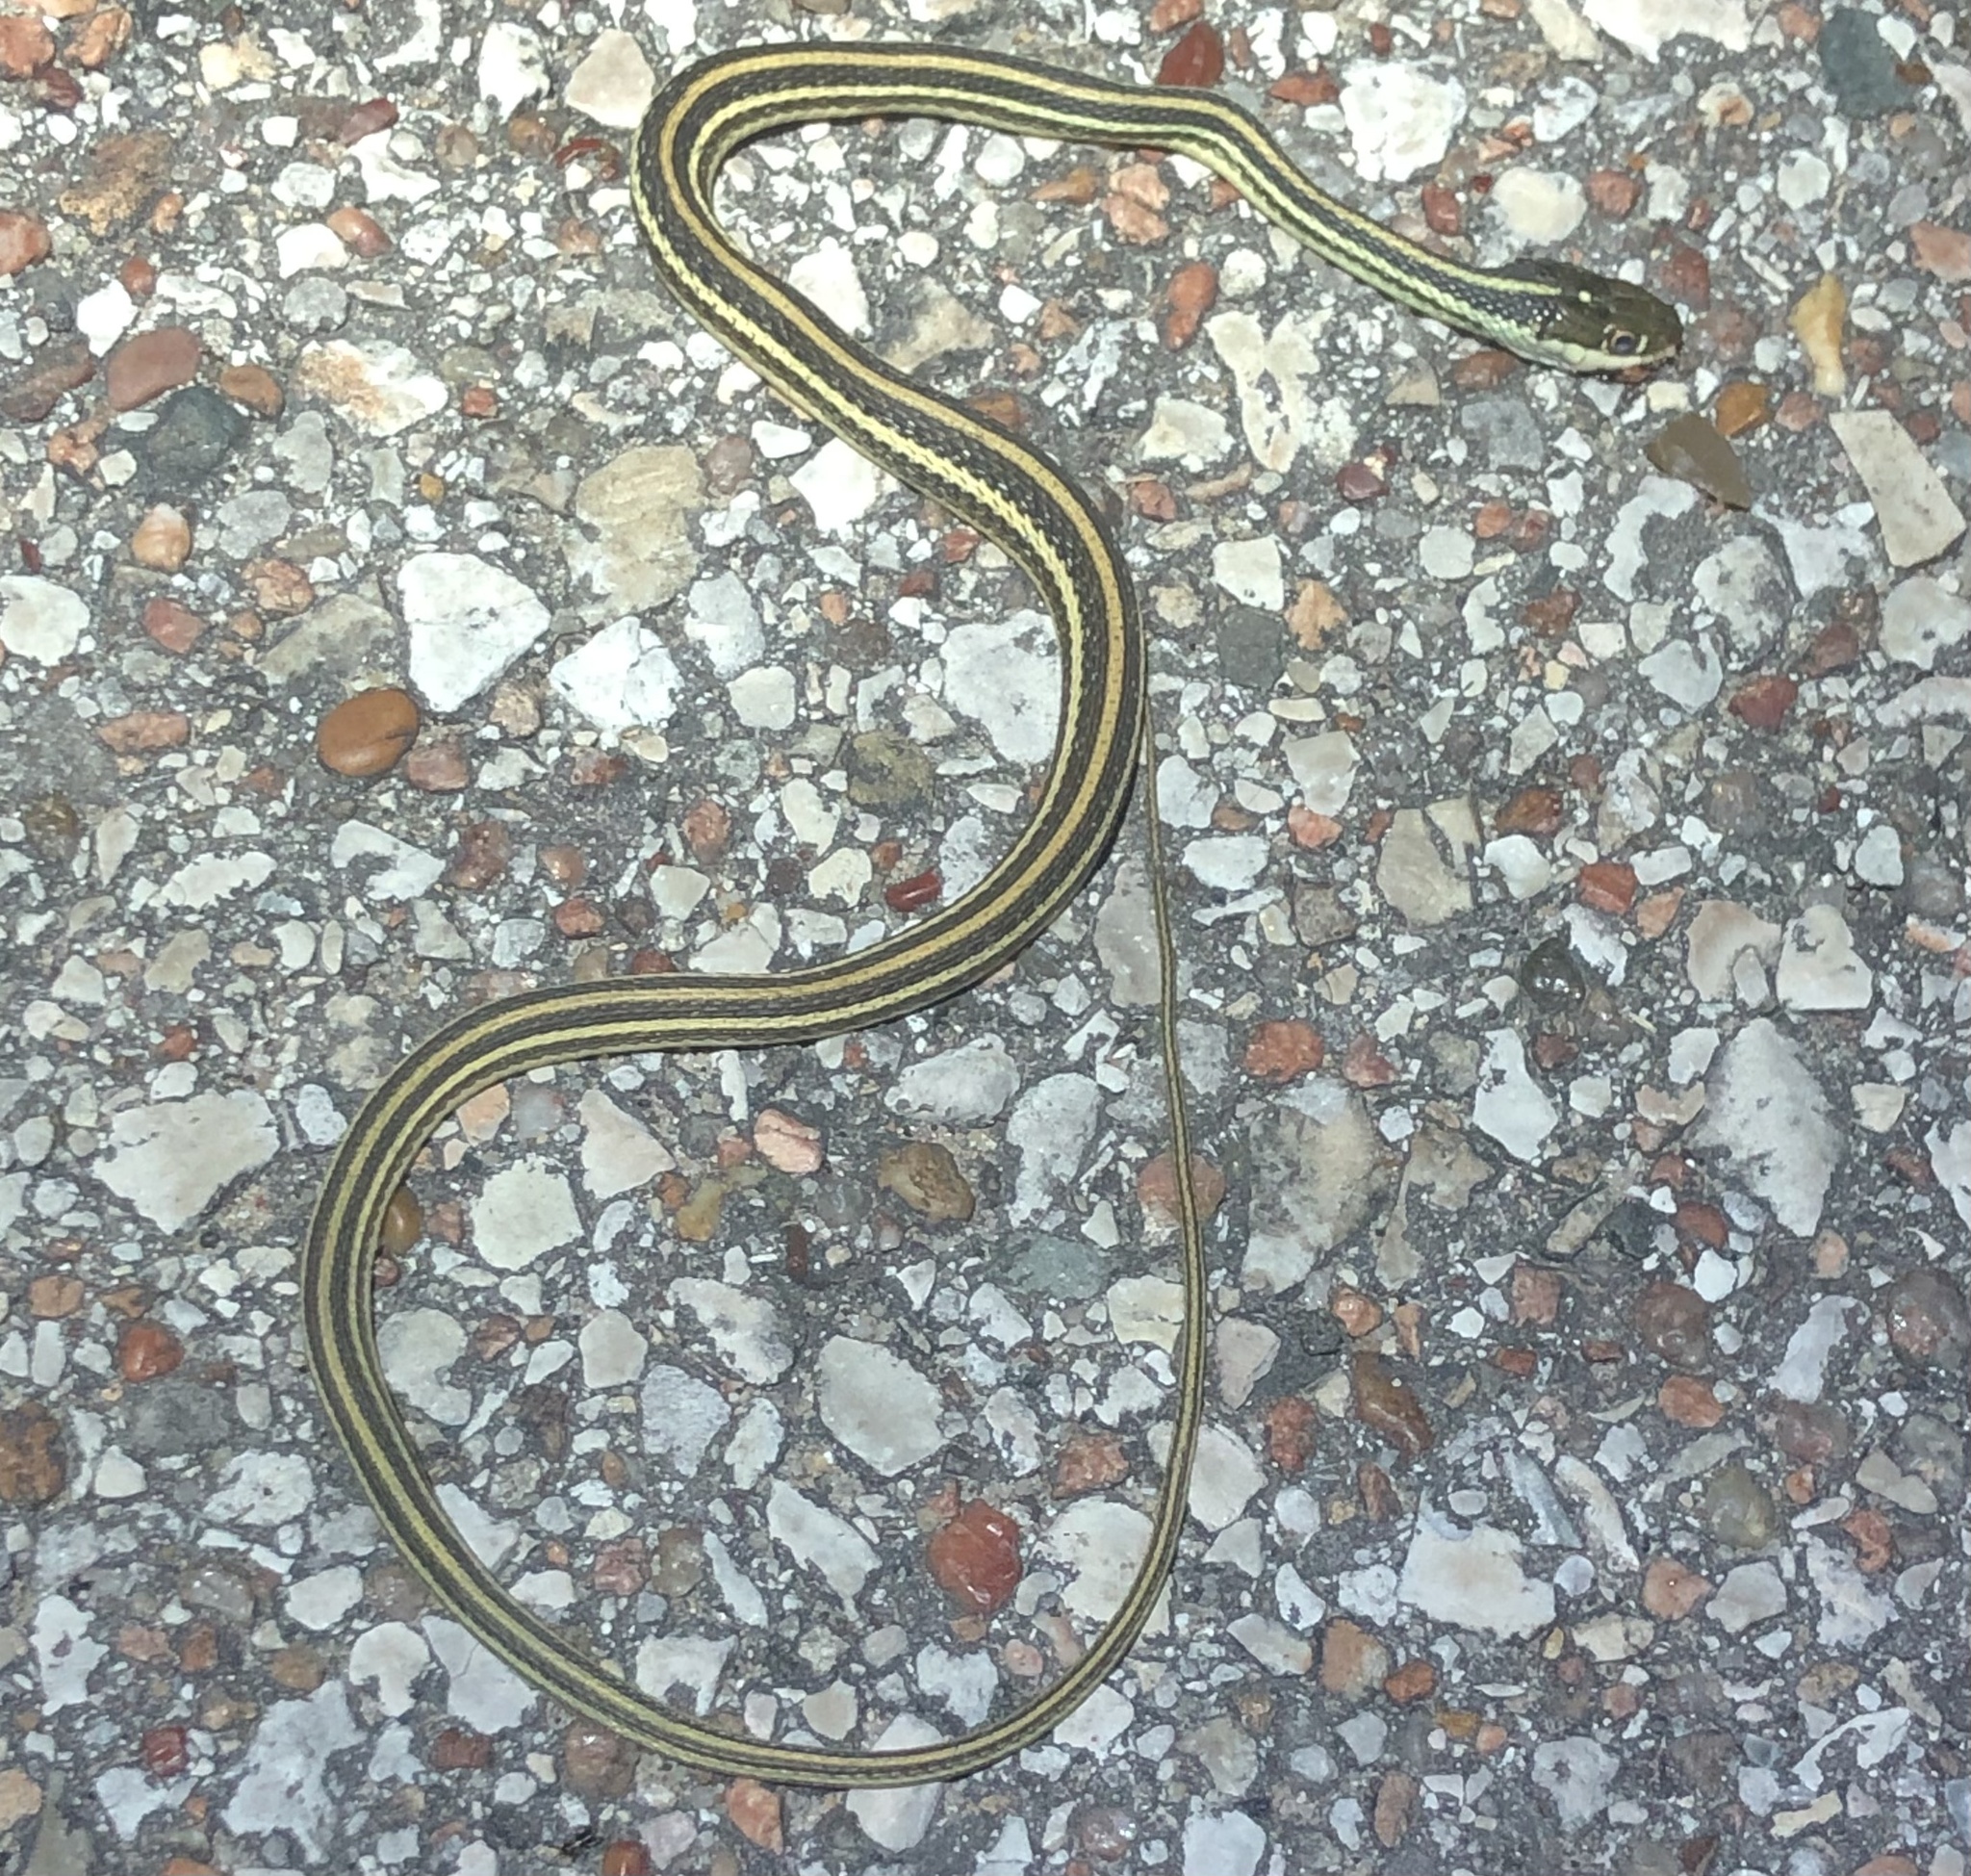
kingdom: Animalia
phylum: Chordata
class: Squamata
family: Colubridae
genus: Thamnophis
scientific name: Thamnophis proximus
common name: Western ribbon snake
